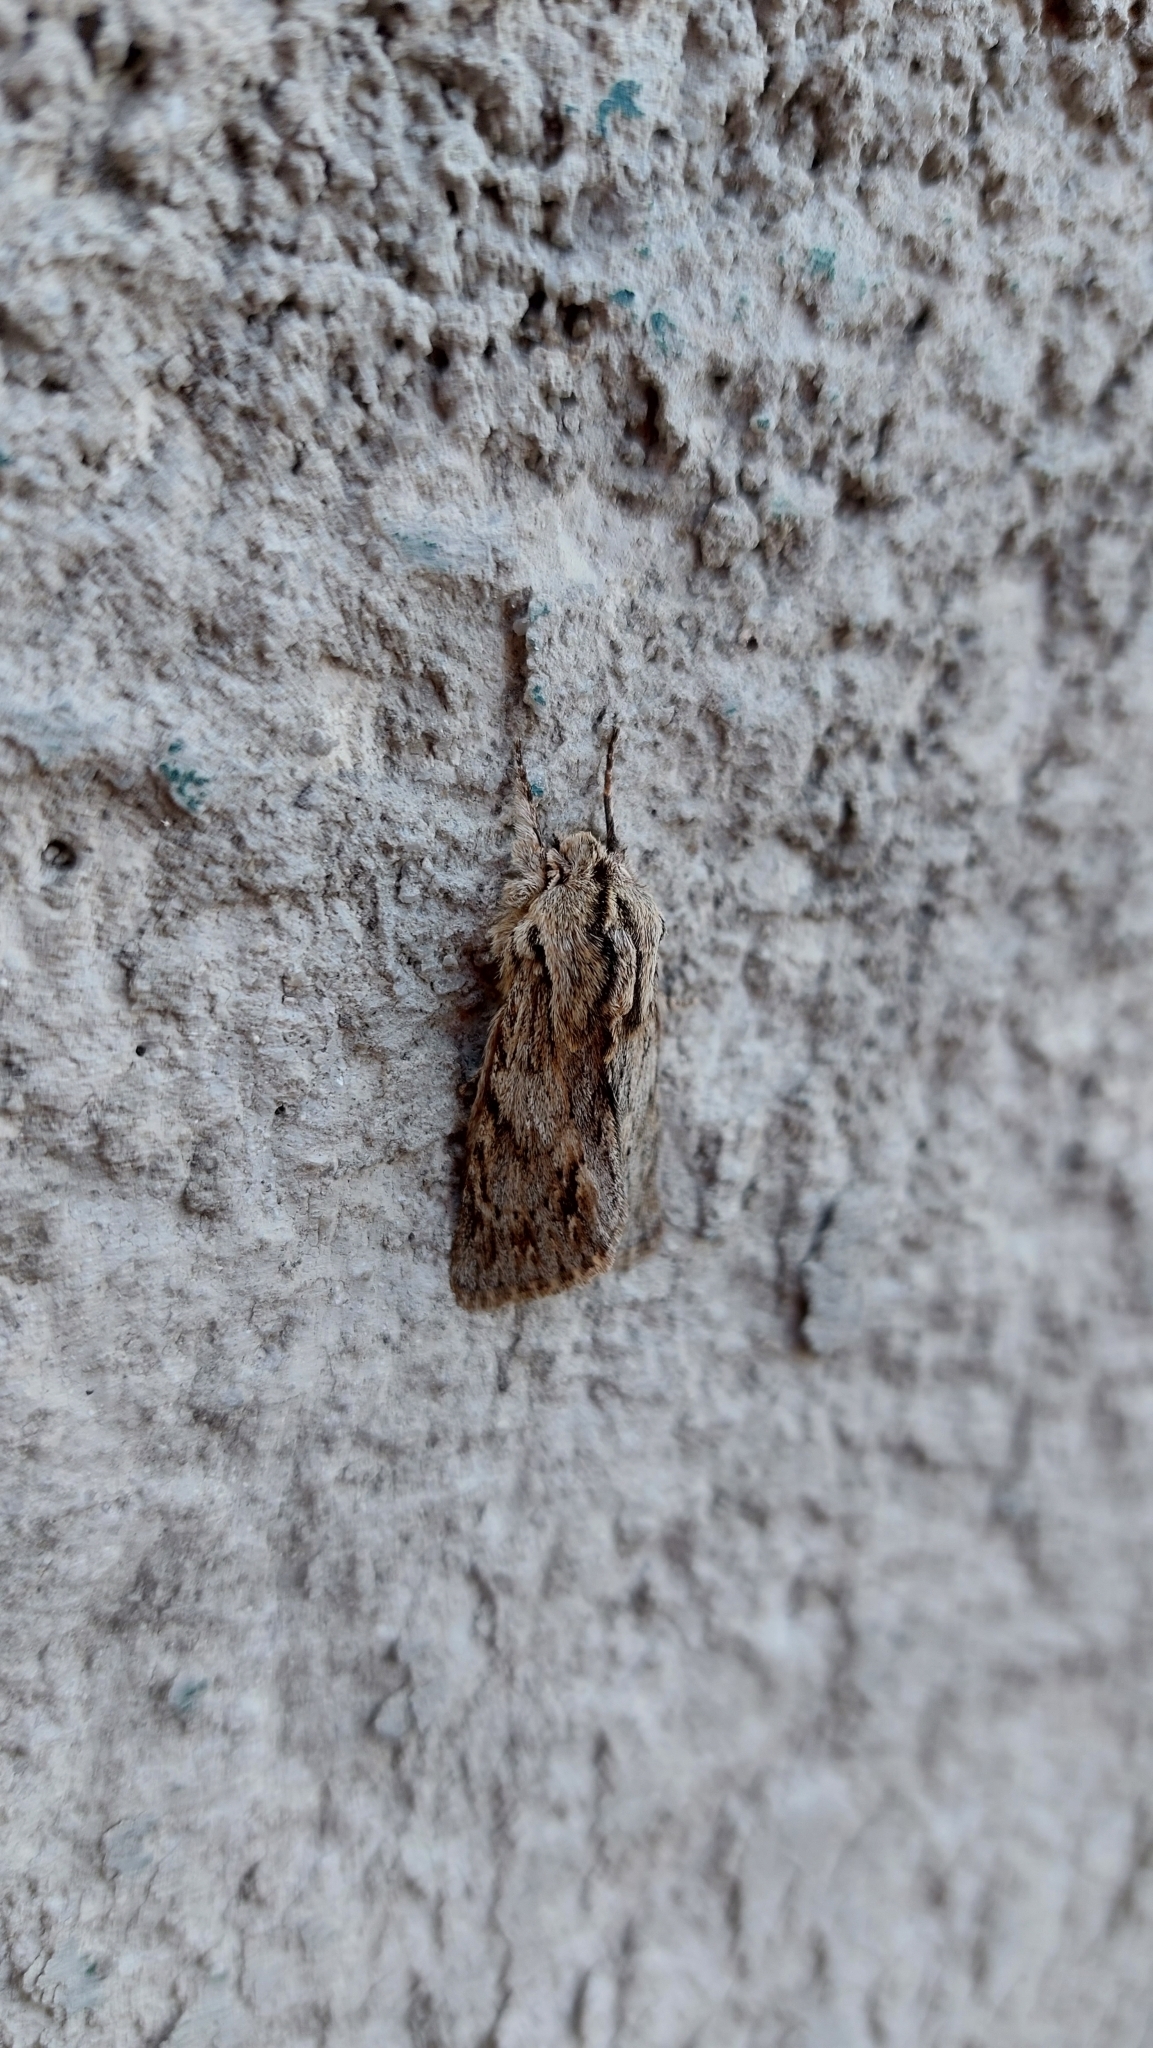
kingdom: Animalia
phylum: Arthropoda
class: Insecta
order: Lepidoptera
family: Noctuidae
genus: Asteroscopus
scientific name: Asteroscopus sphinx
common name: The sprawler
